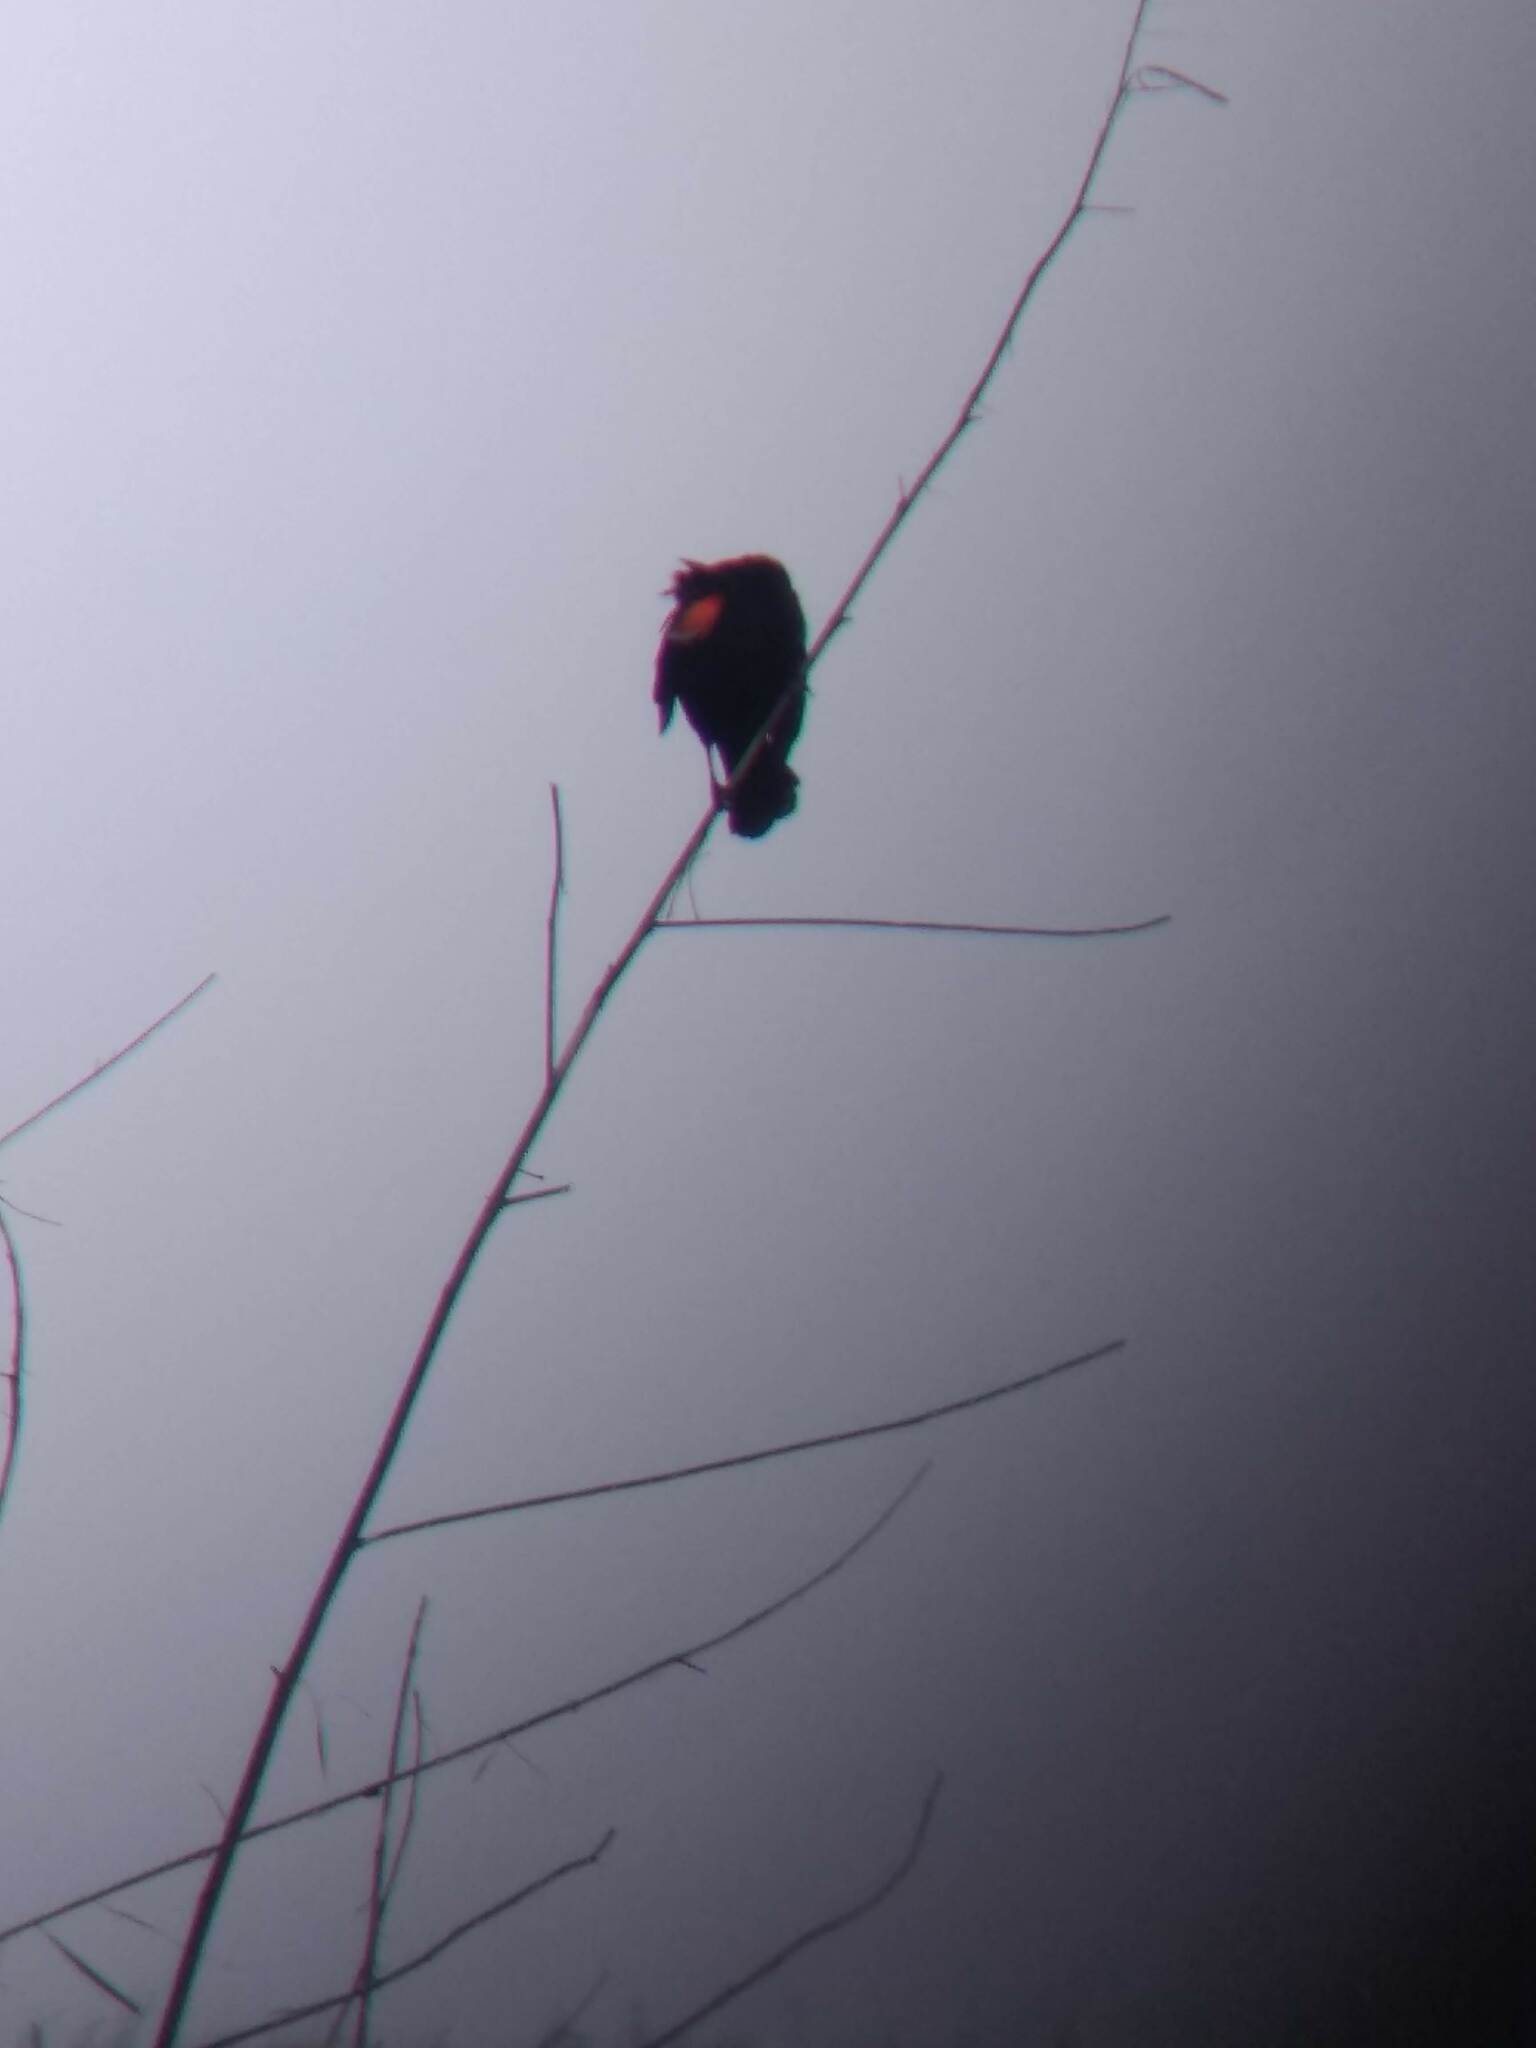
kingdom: Animalia
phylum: Chordata
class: Aves
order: Passeriformes
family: Icteridae
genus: Agelaius
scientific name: Agelaius phoeniceus
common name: Red-winged blackbird
